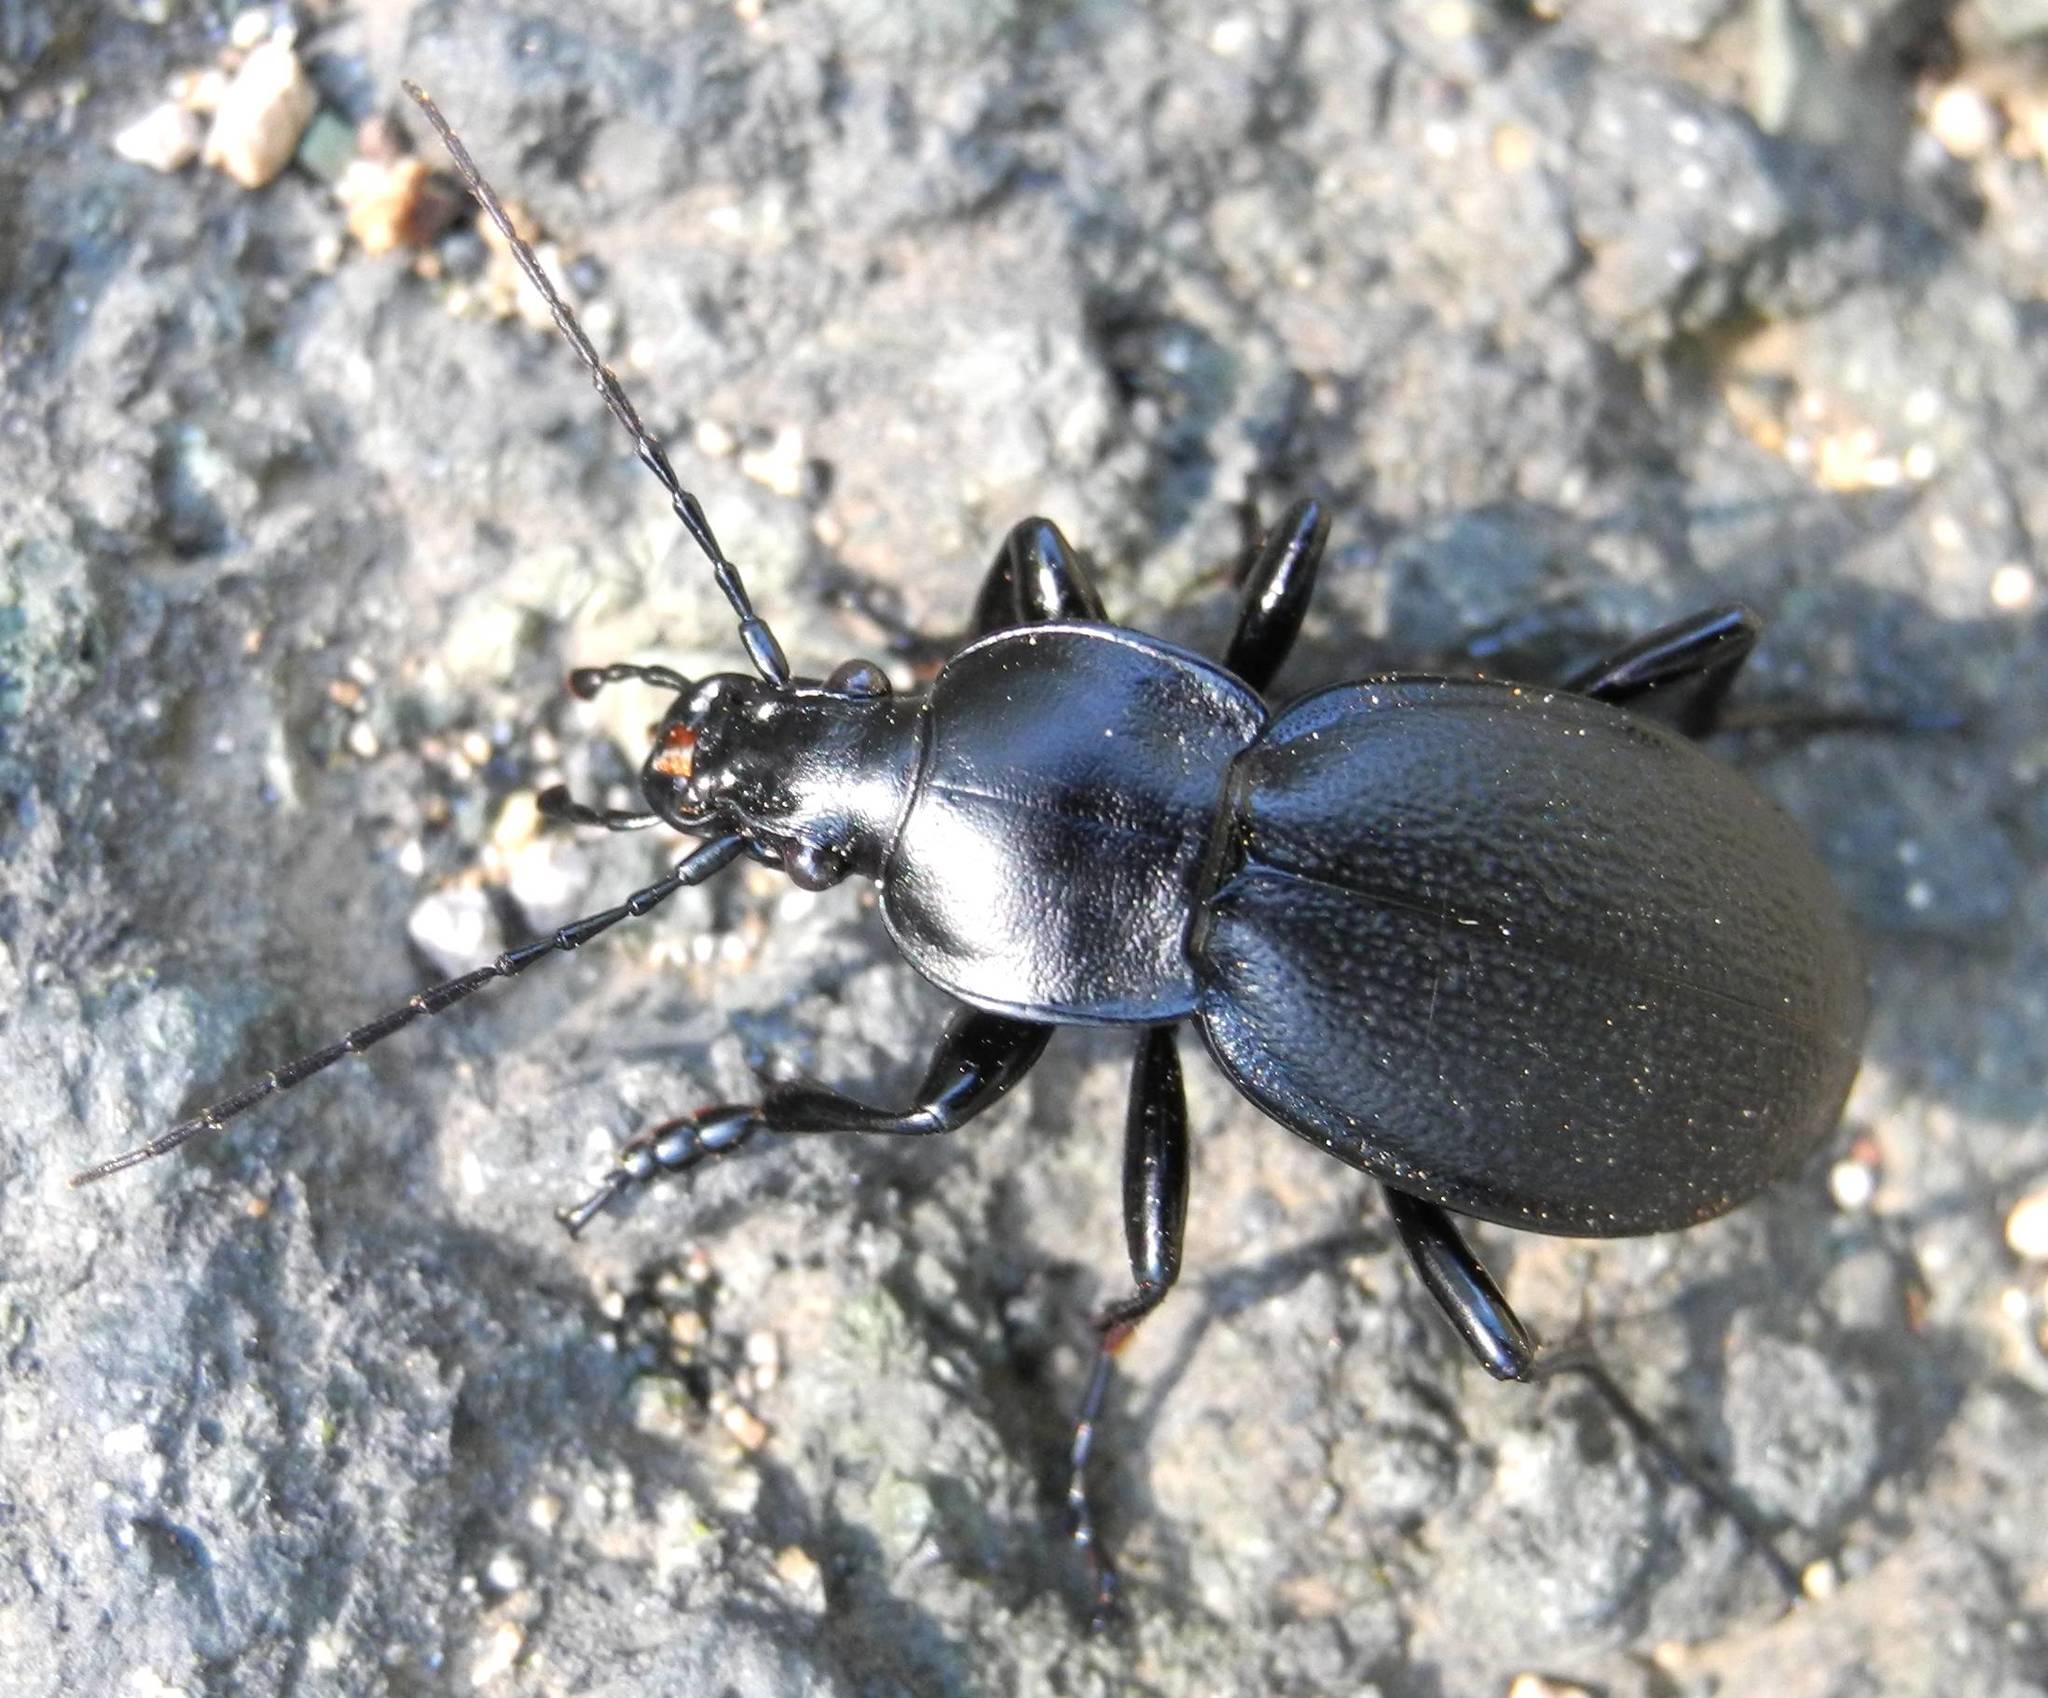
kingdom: Animalia
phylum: Arthropoda
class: Insecta
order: Coleoptera
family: Carabidae
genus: Carabus
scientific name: Carabus coriaceus
